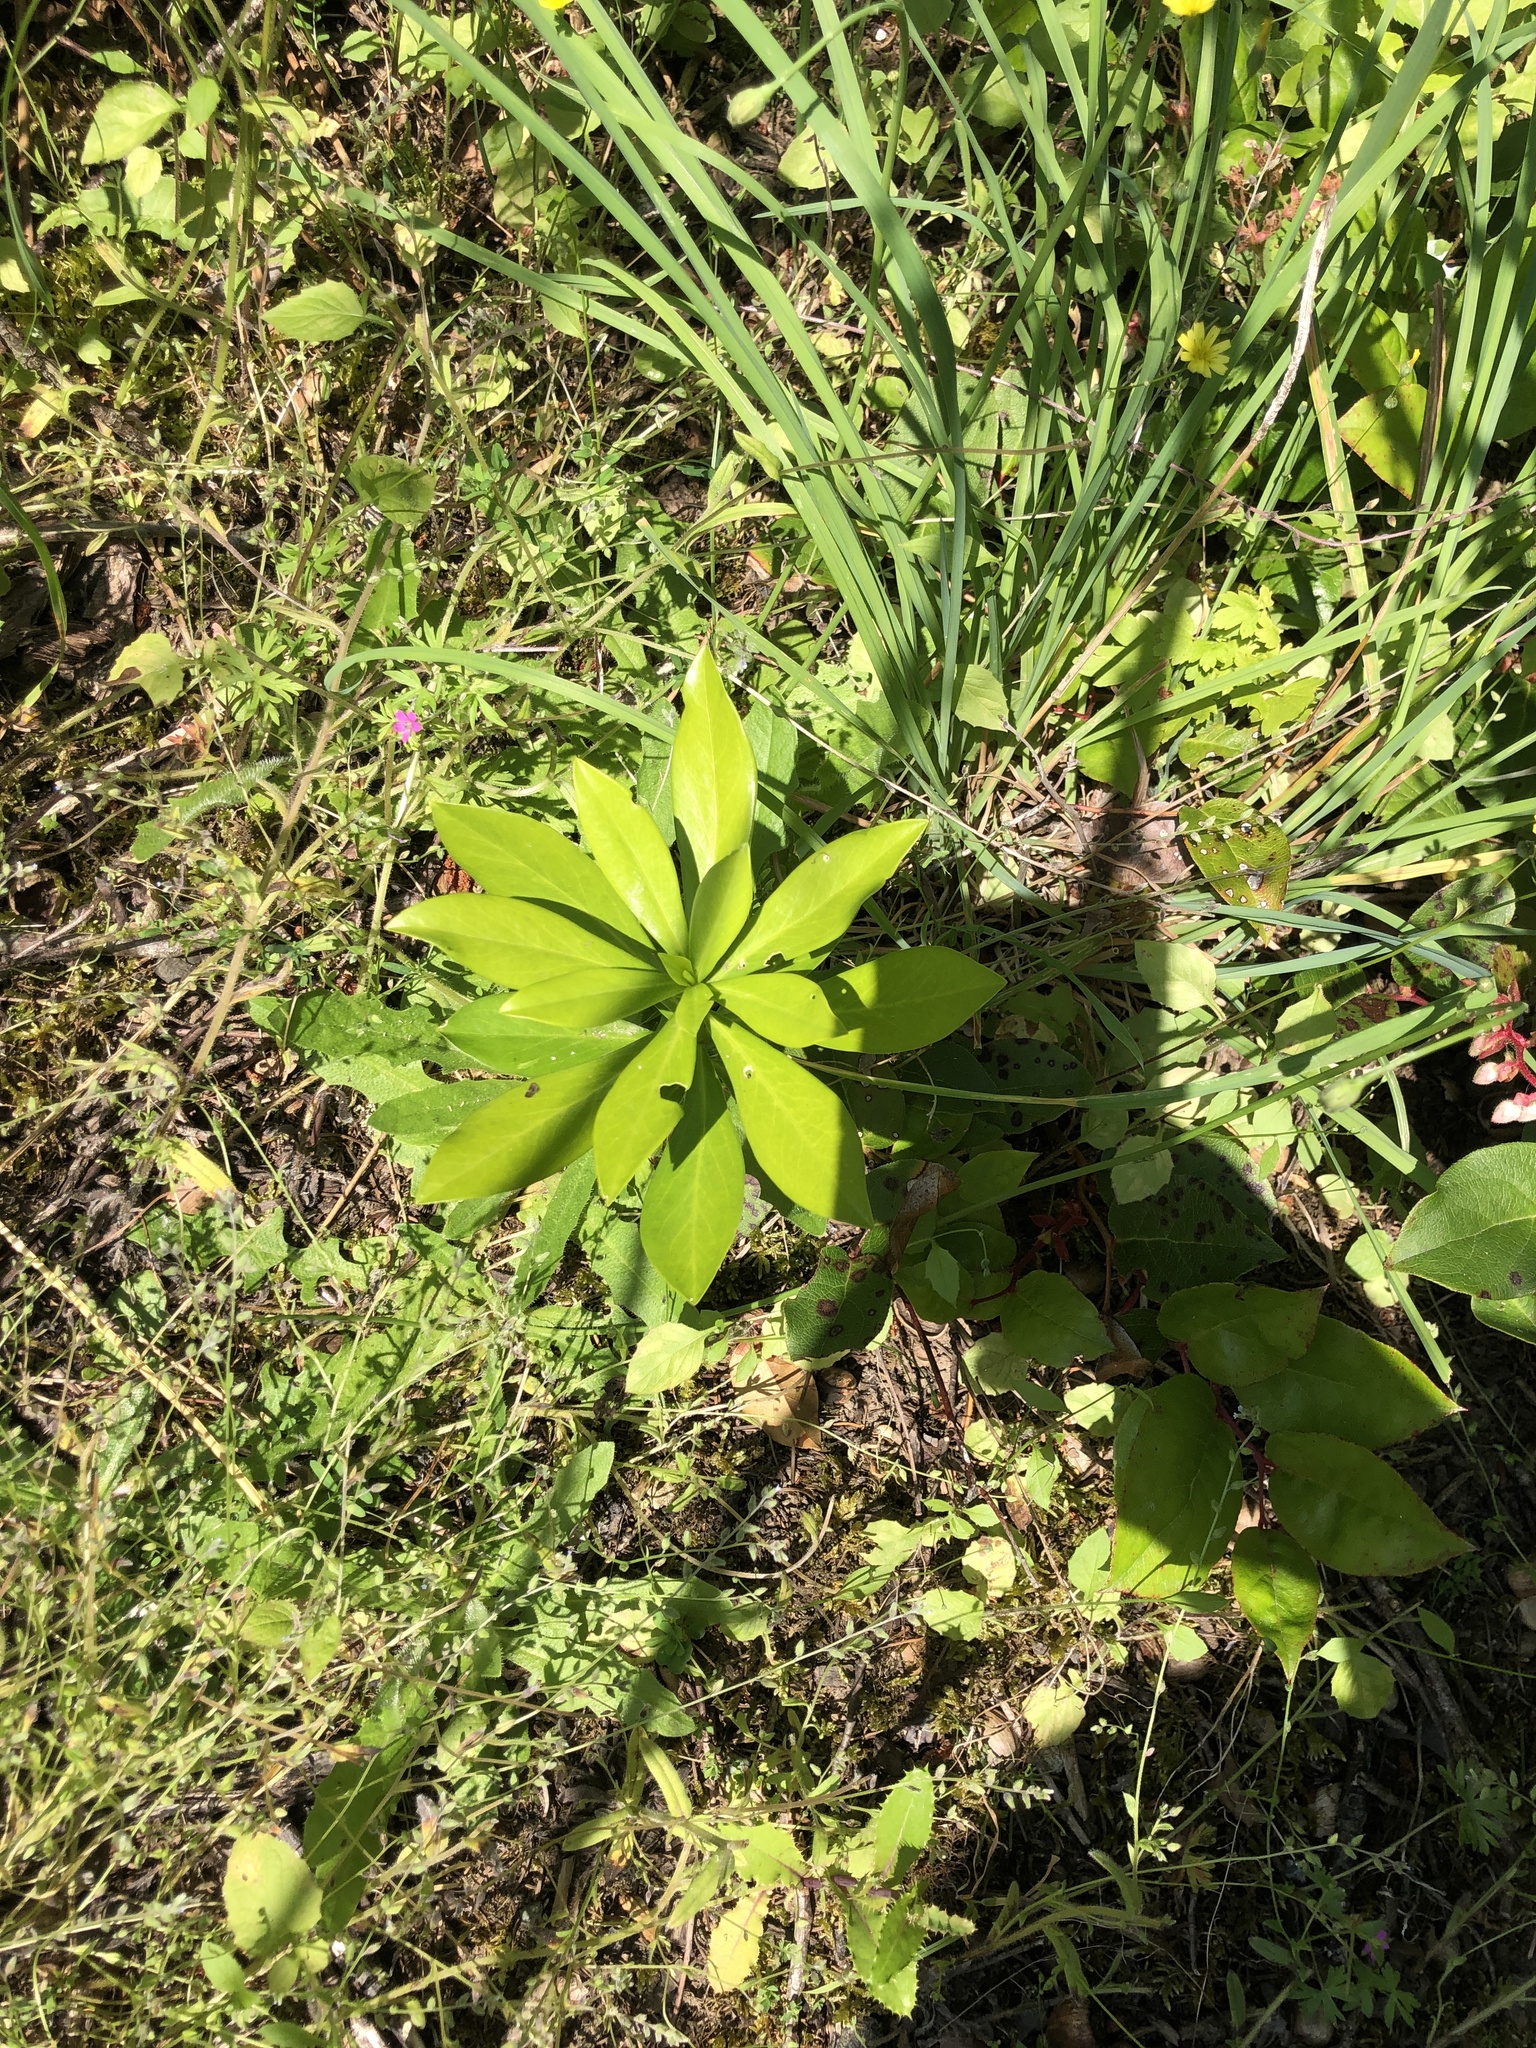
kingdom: Plantae
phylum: Tracheophyta
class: Magnoliopsida
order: Malvales
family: Thymelaeaceae
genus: Daphne
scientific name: Daphne laureola
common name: Spurge-laurel
